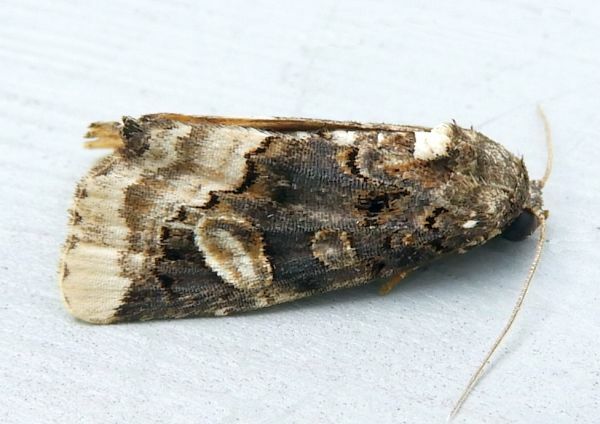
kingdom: Animalia
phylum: Arthropoda
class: Insecta
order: Lepidoptera
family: Noctuidae
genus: Homophoberia
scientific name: Homophoberia apicosa
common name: Black wedge-spot
